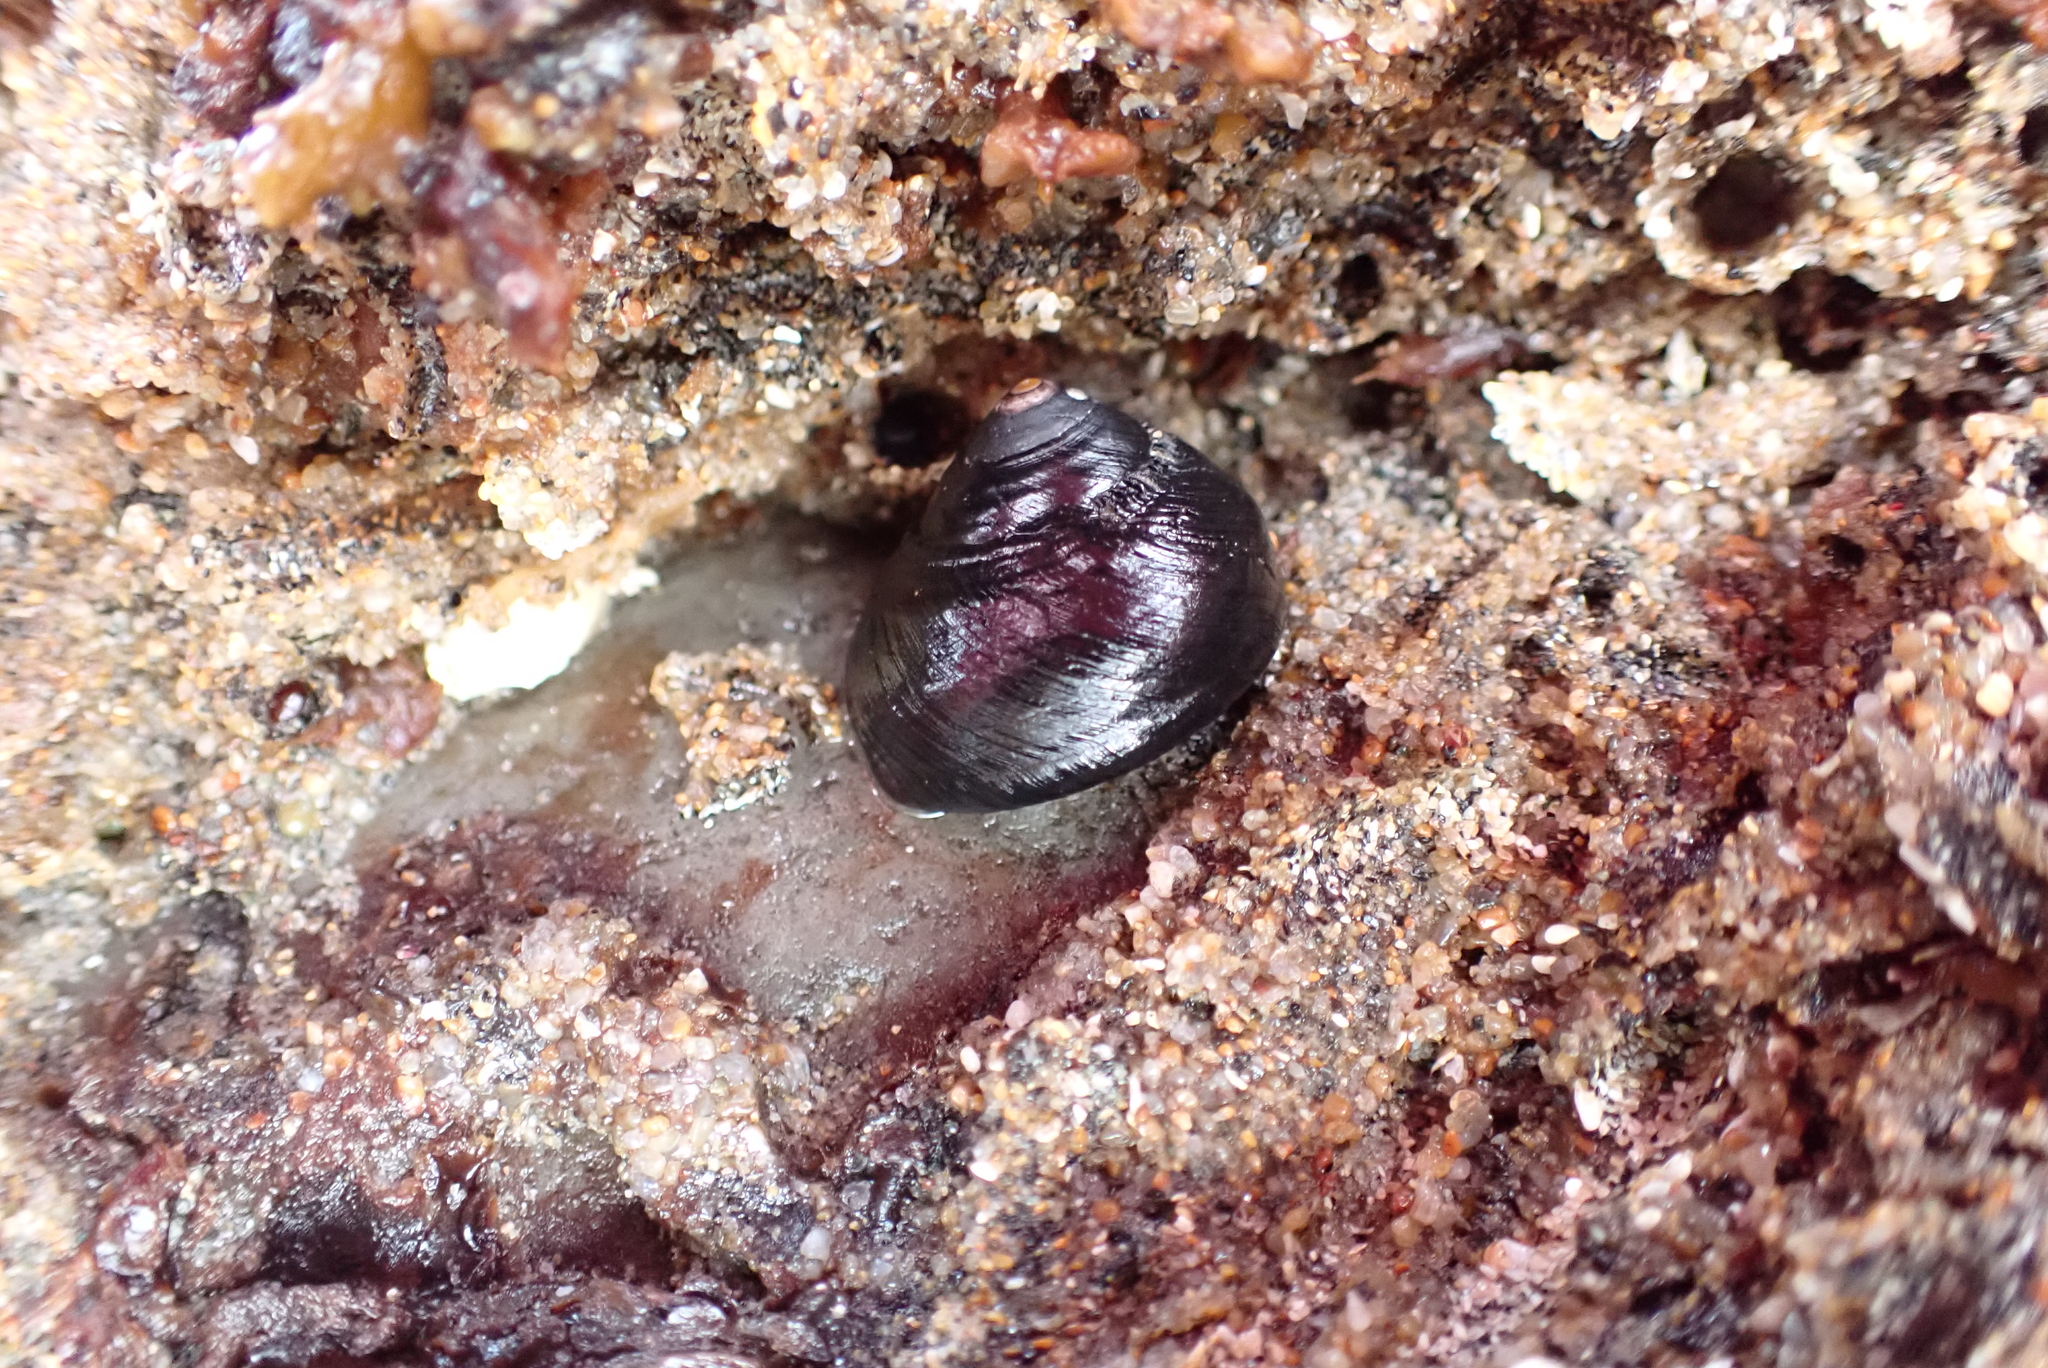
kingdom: Animalia
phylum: Mollusca
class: Gastropoda
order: Trochida
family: Tegulidae
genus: Tegula
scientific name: Tegula funebralis
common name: Black tegula
